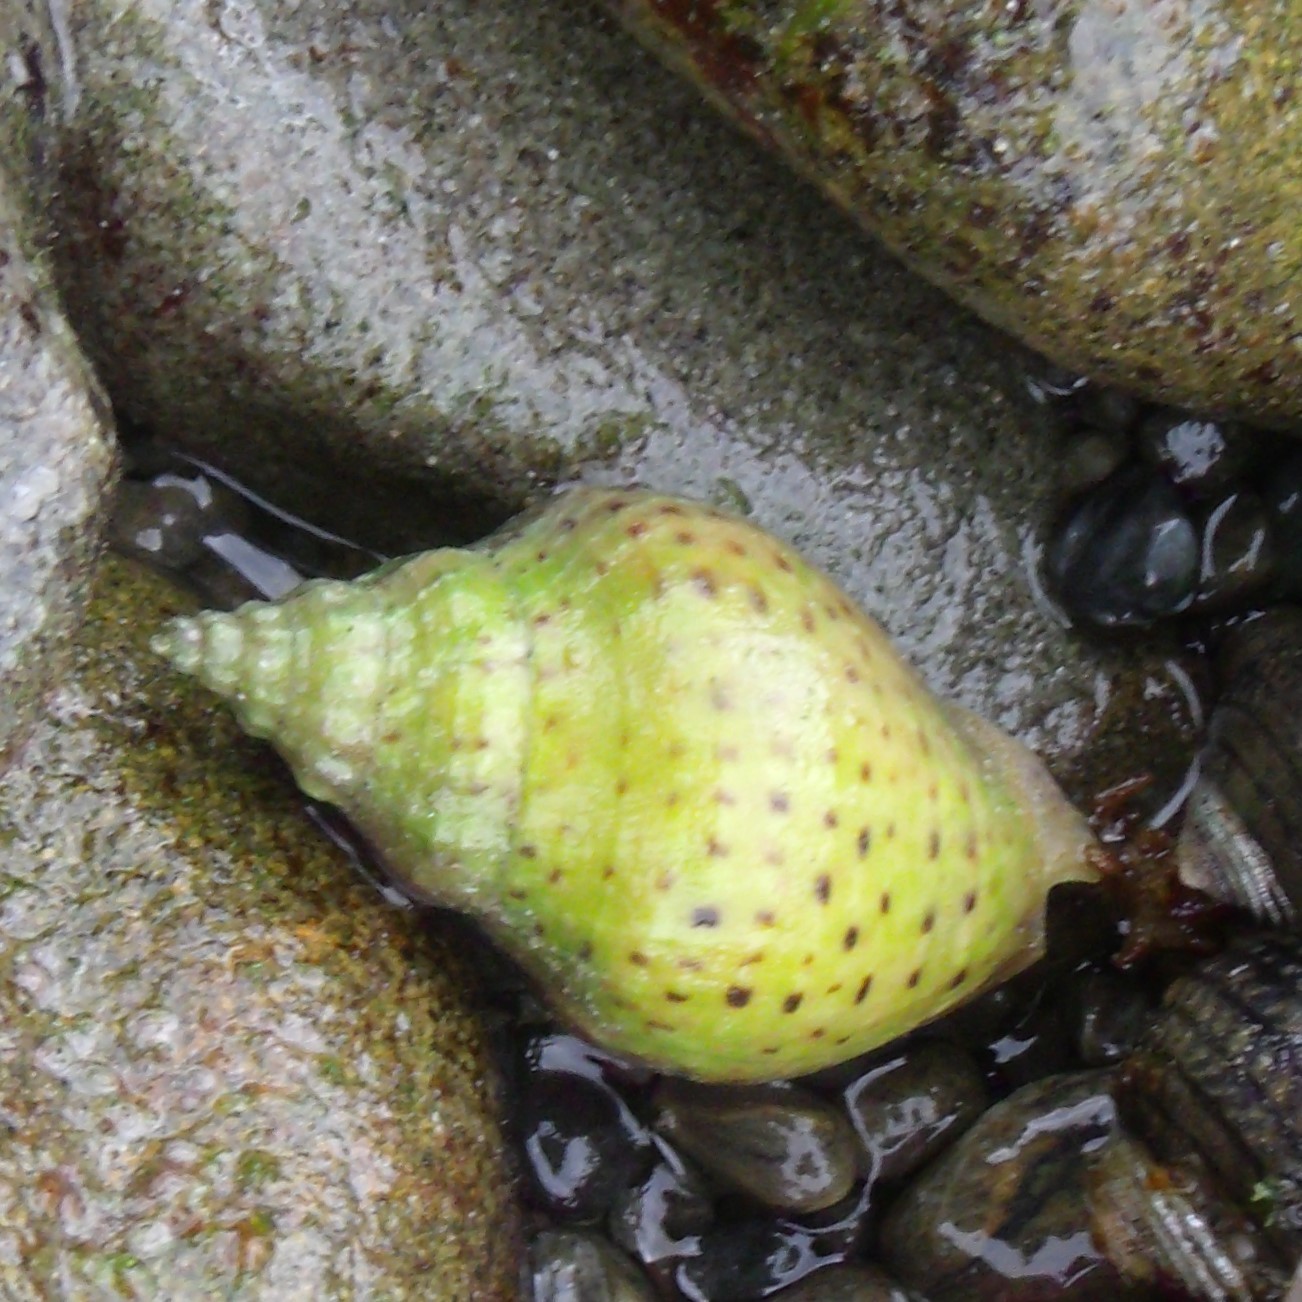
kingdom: Animalia
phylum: Mollusca
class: Gastropoda
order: Neogastropoda
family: Cominellidae
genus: Cominella
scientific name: Cominella adspersa
